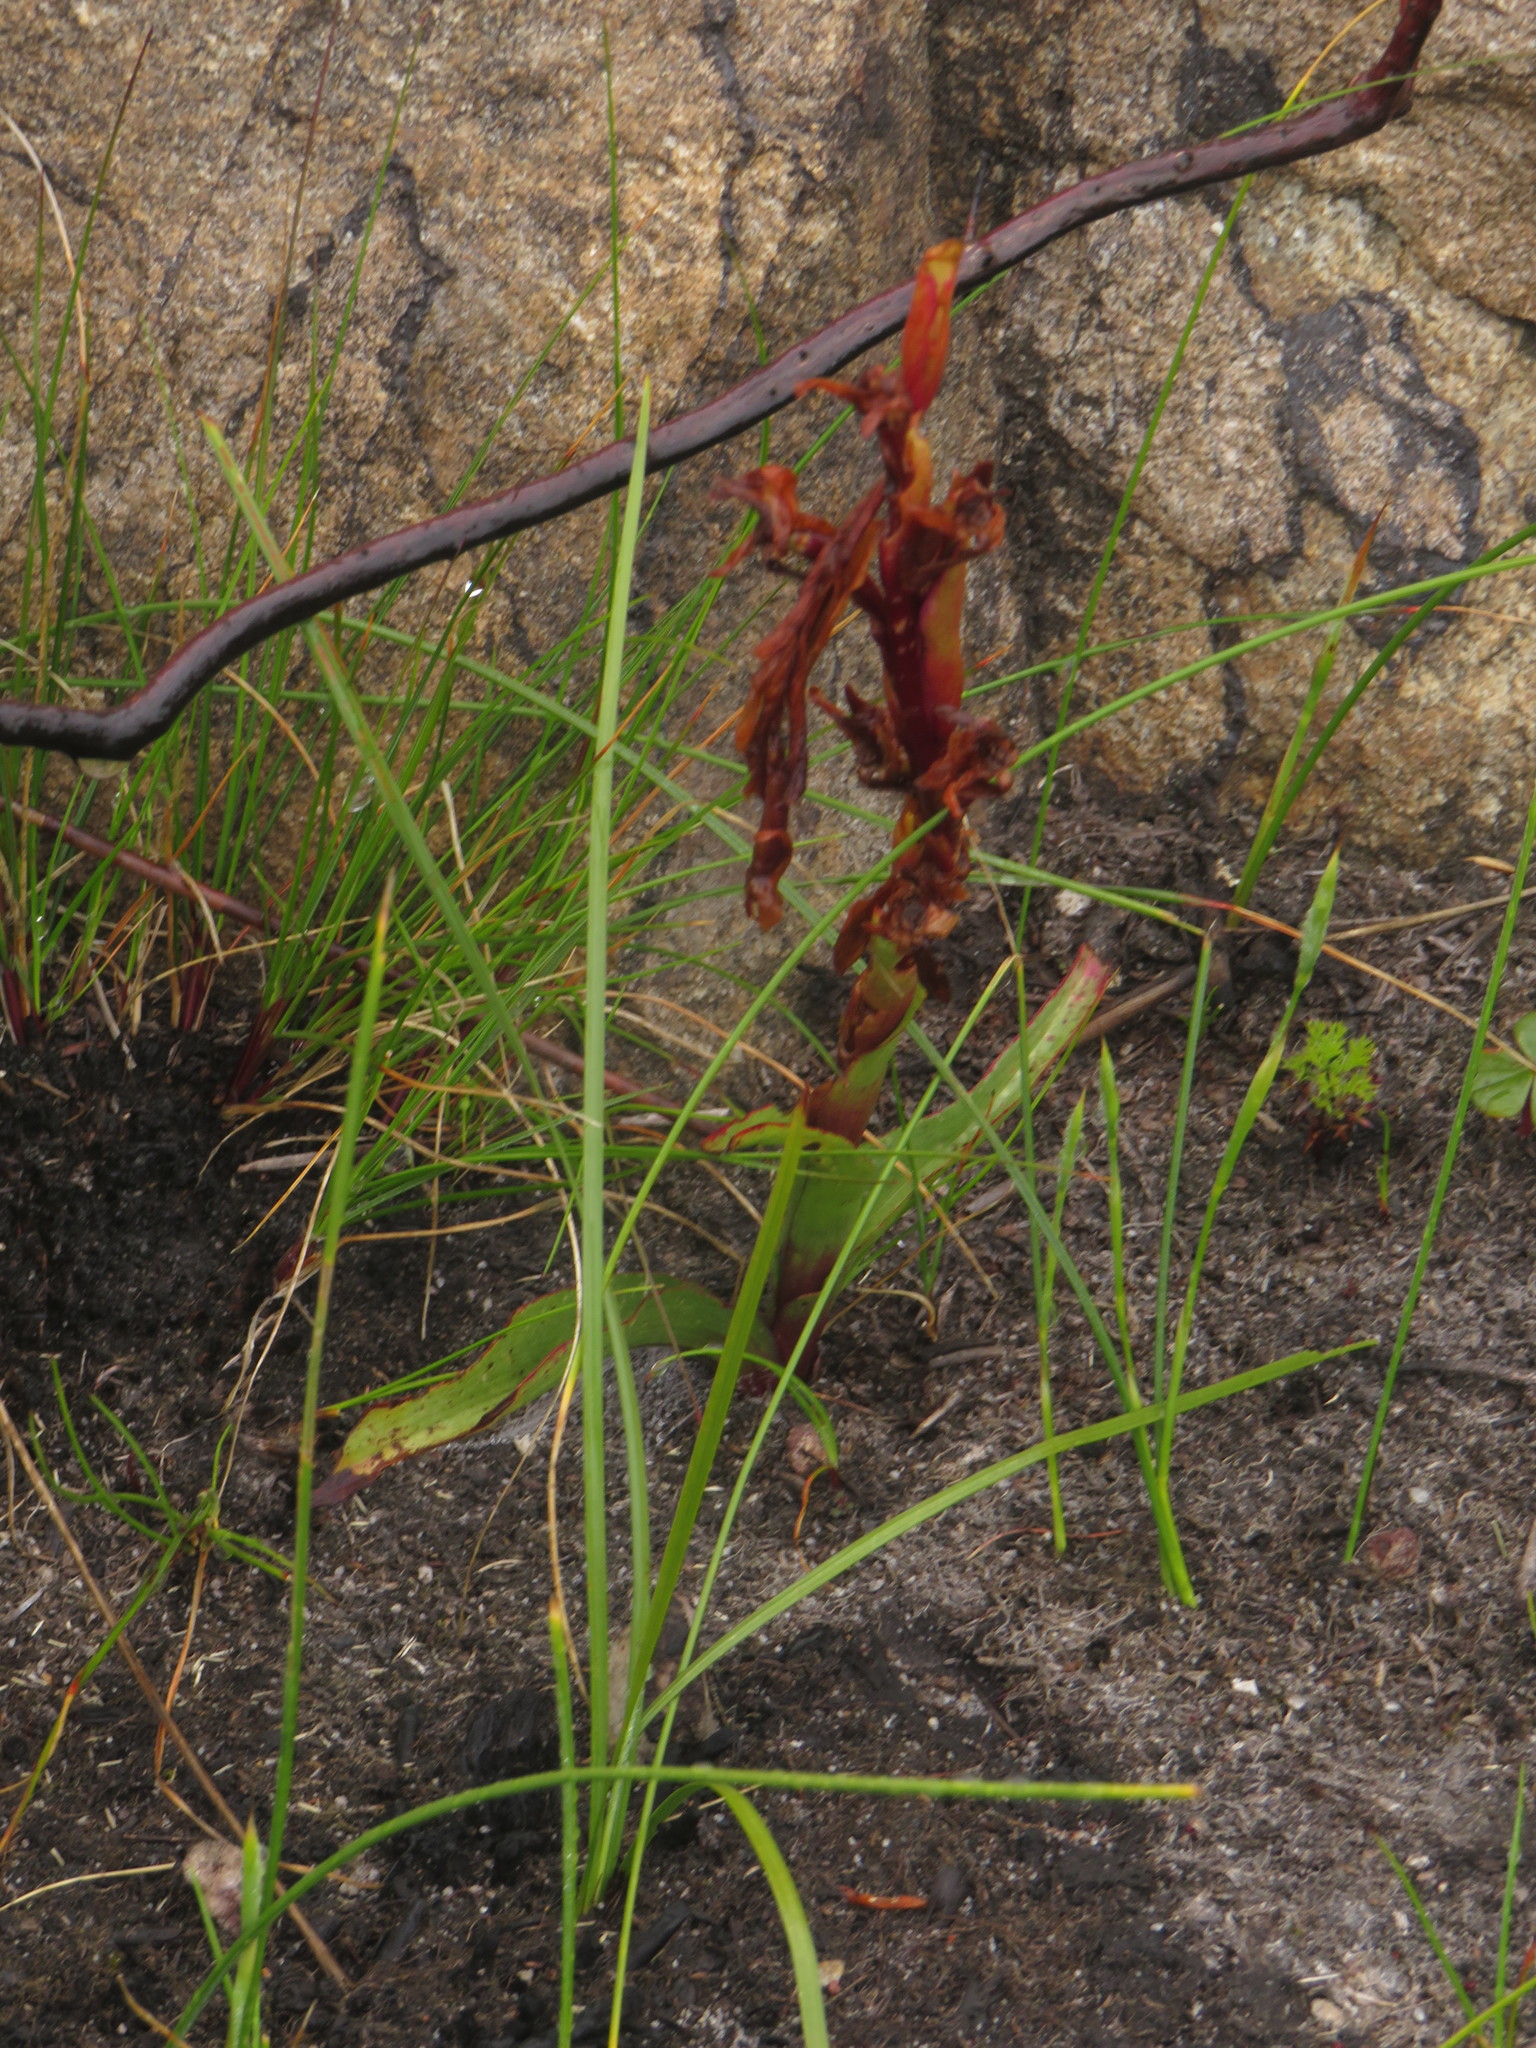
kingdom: Plantae
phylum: Tracheophyta
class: Liliopsida
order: Asparagales
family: Orchidaceae
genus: Disa
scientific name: Disa ophrydea
